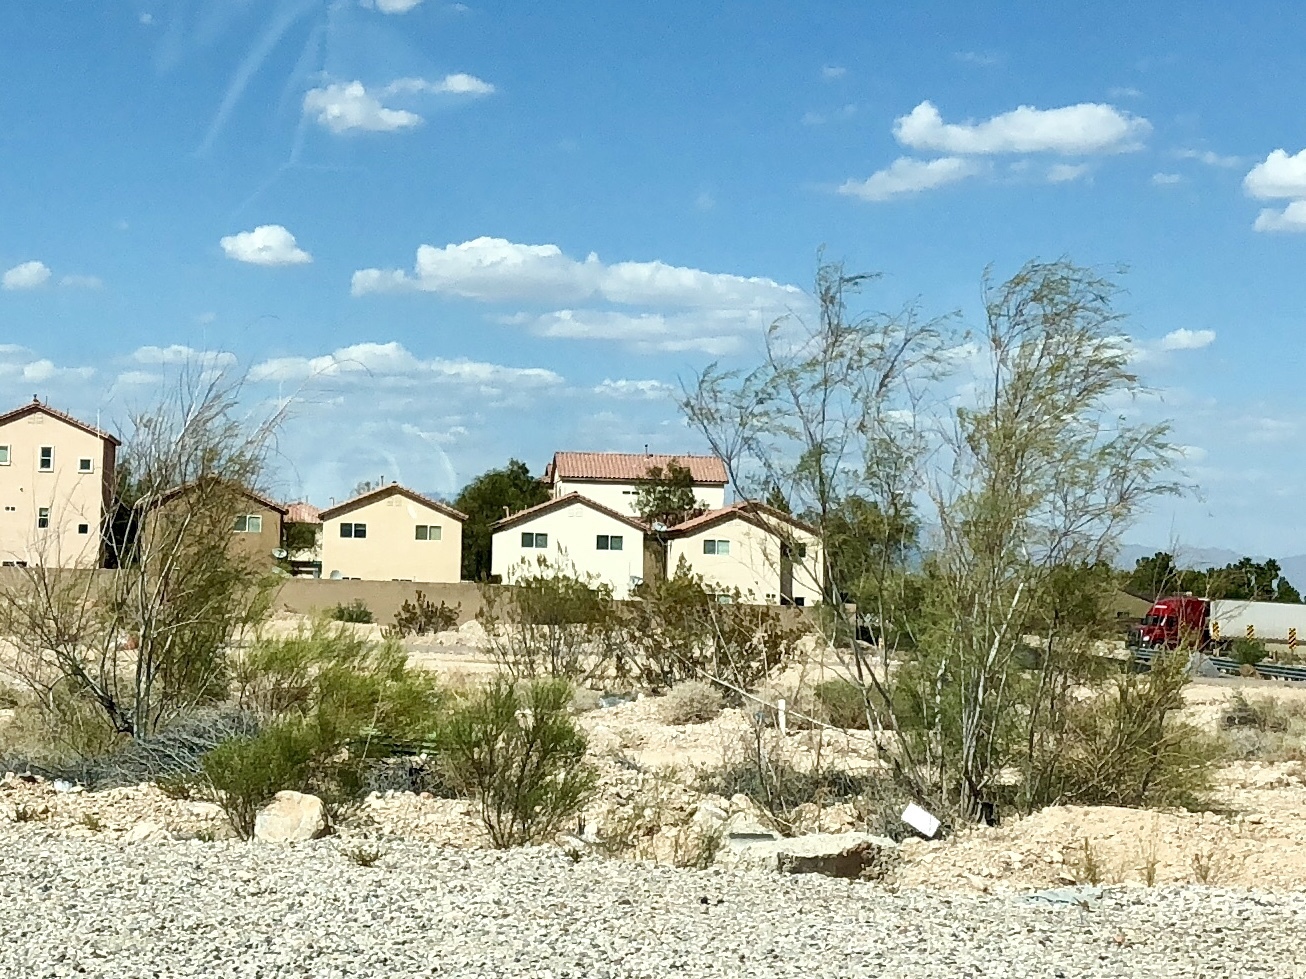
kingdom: Plantae
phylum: Tracheophyta
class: Magnoliopsida
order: Fabales
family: Fabaceae
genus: Parkinsonia
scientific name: Parkinsonia aculeata
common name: Jerusalem thorn
